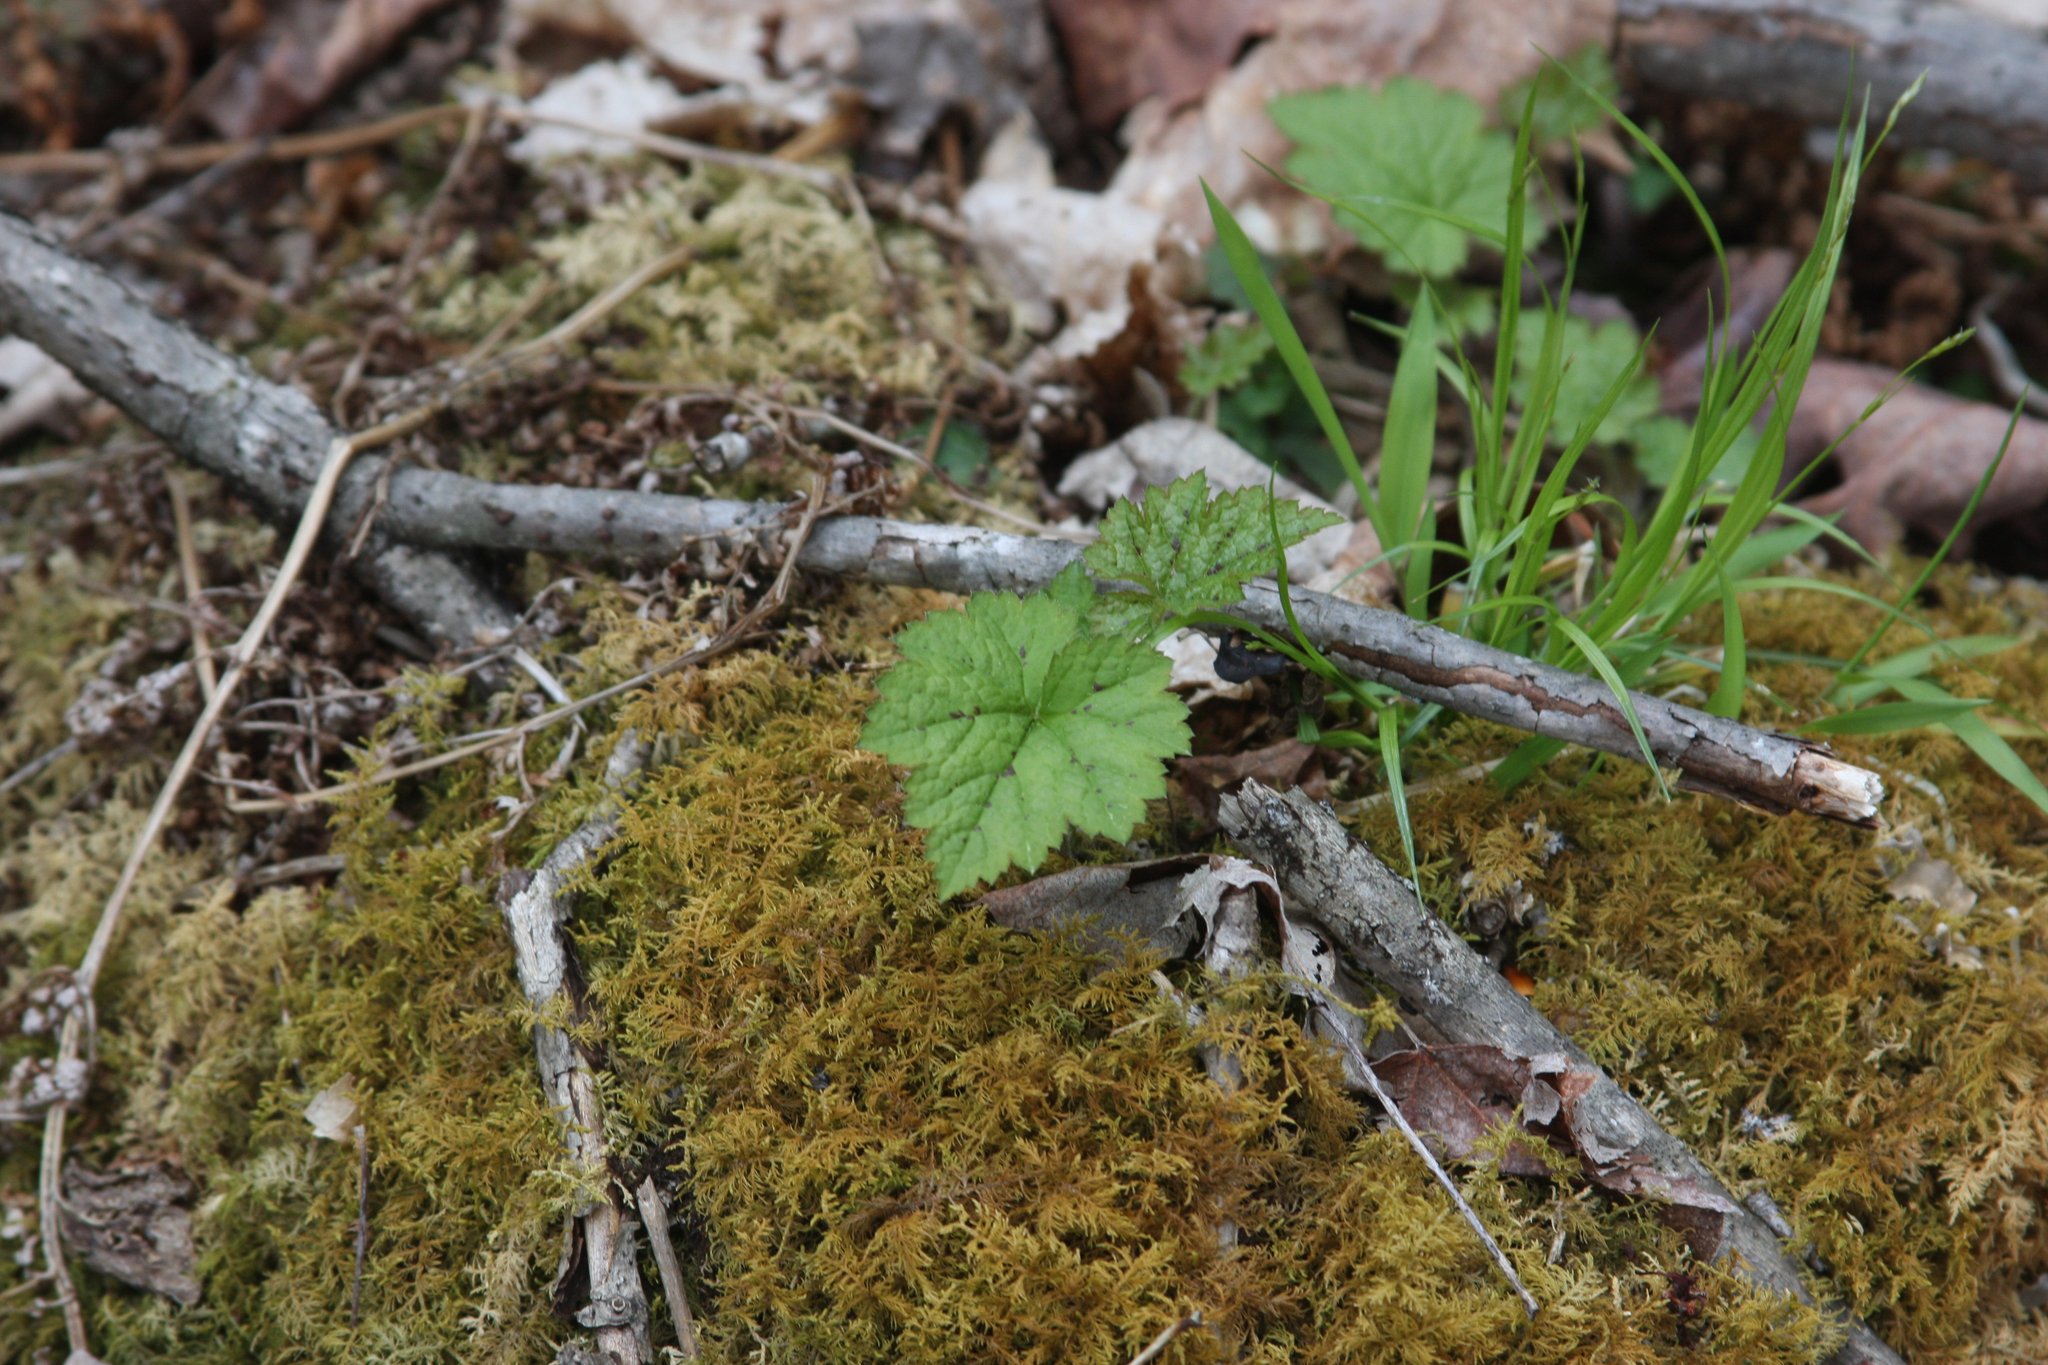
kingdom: Plantae
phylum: Tracheophyta
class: Magnoliopsida
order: Saxifragales
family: Saxifragaceae
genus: Tiarella
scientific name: Tiarella stolonifera
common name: Stoloniferous foamflower
